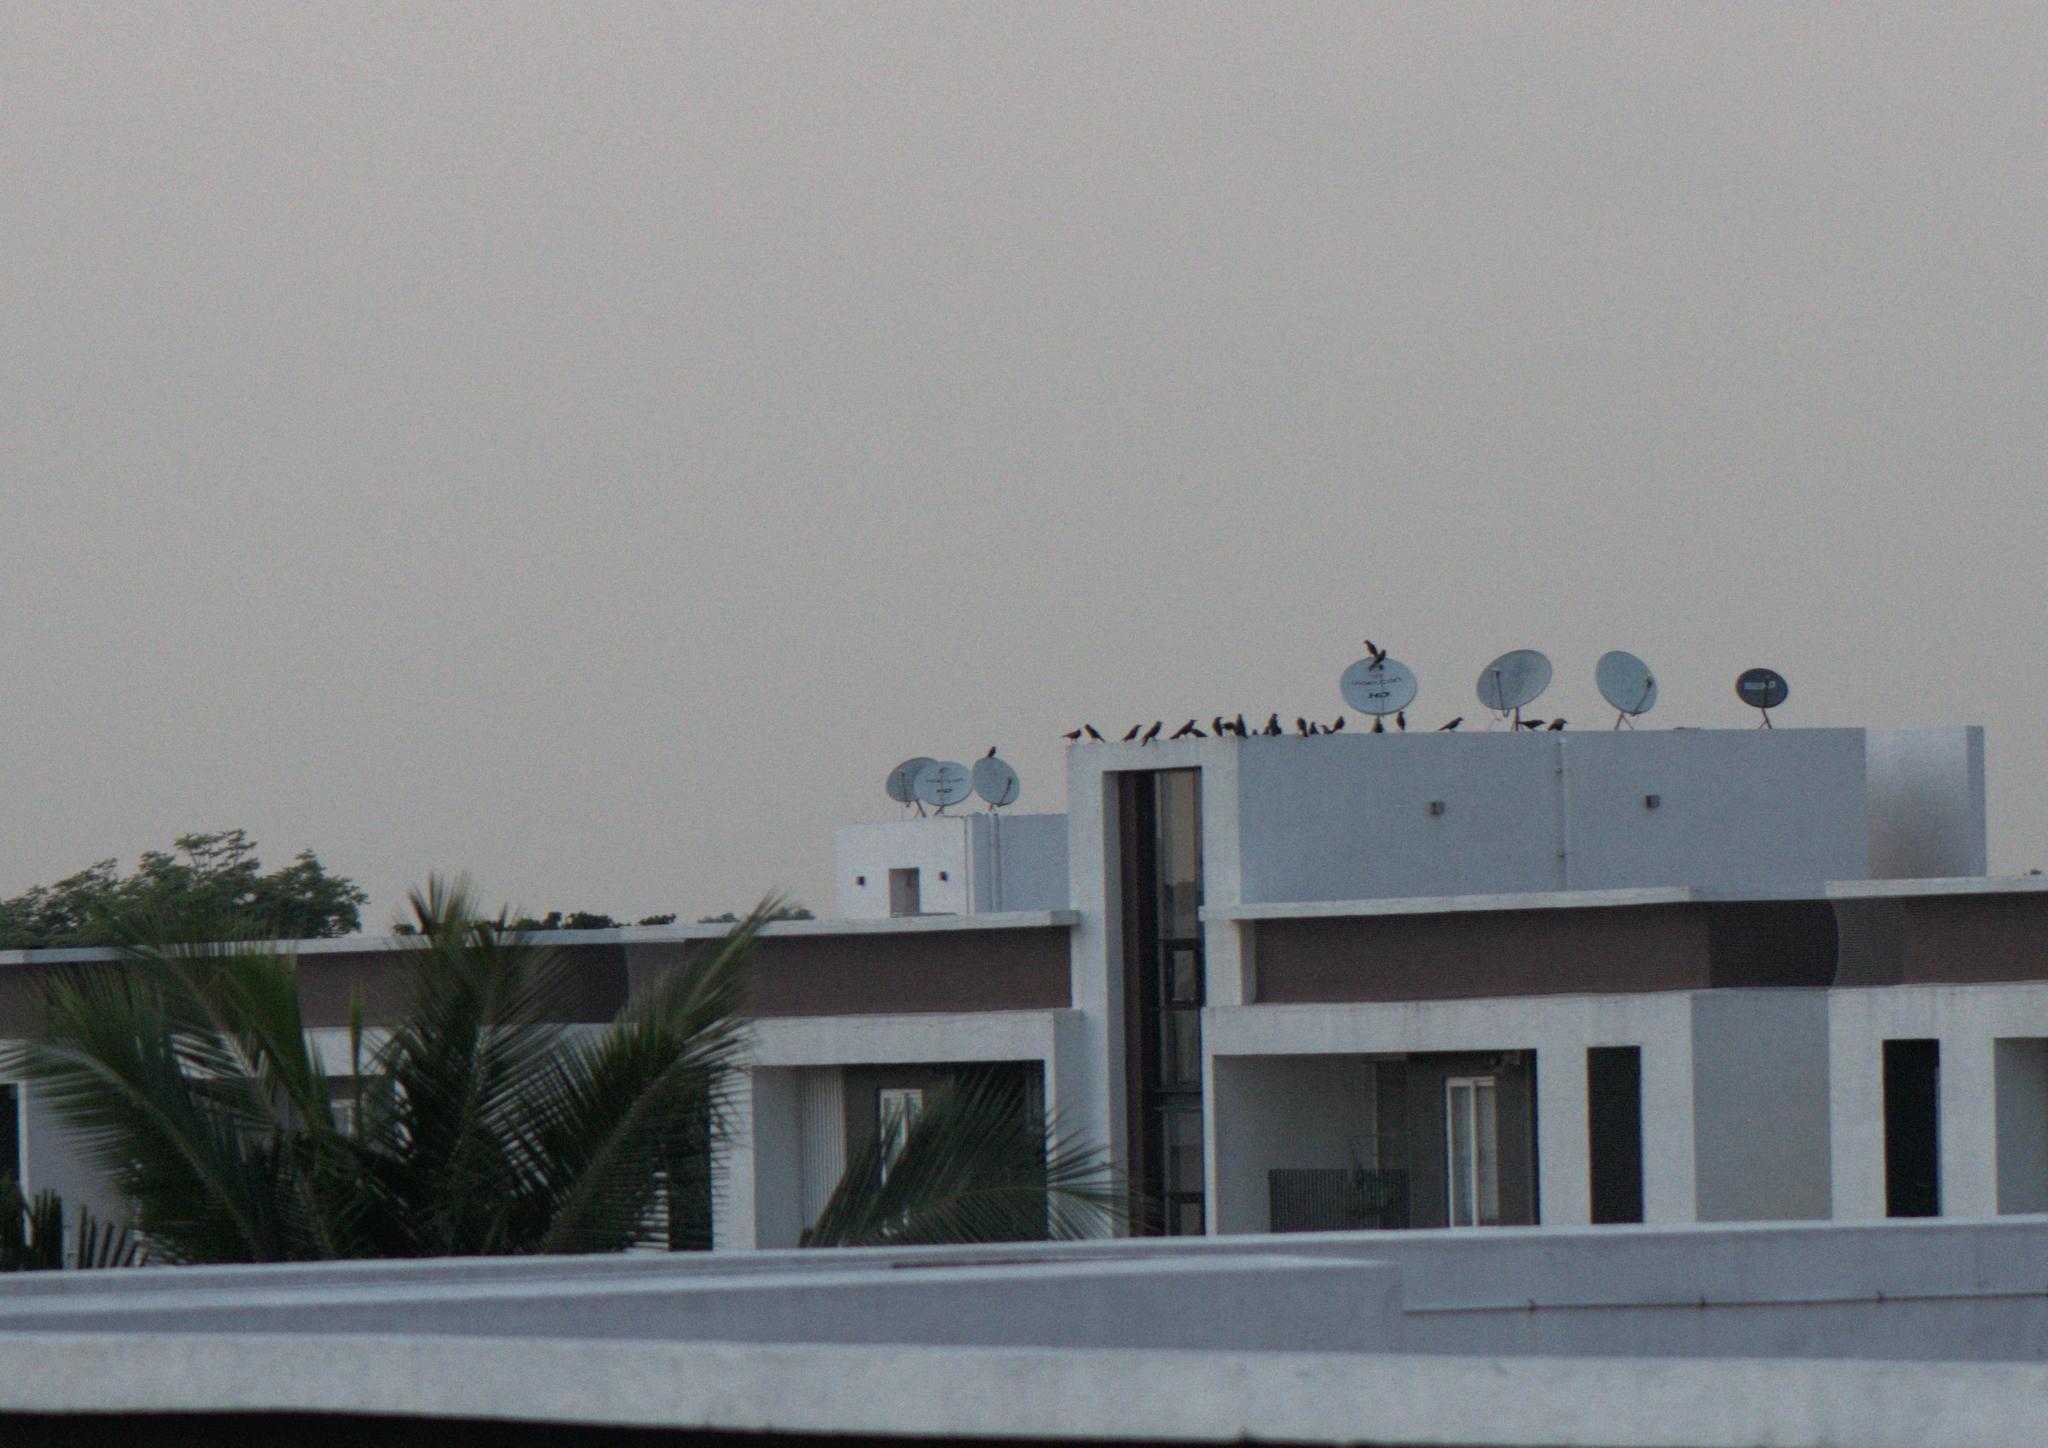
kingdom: Animalia
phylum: Chordata
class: Aves
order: Passeriformes
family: Corvidae
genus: Corvus
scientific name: Corvus splendens
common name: House crow
